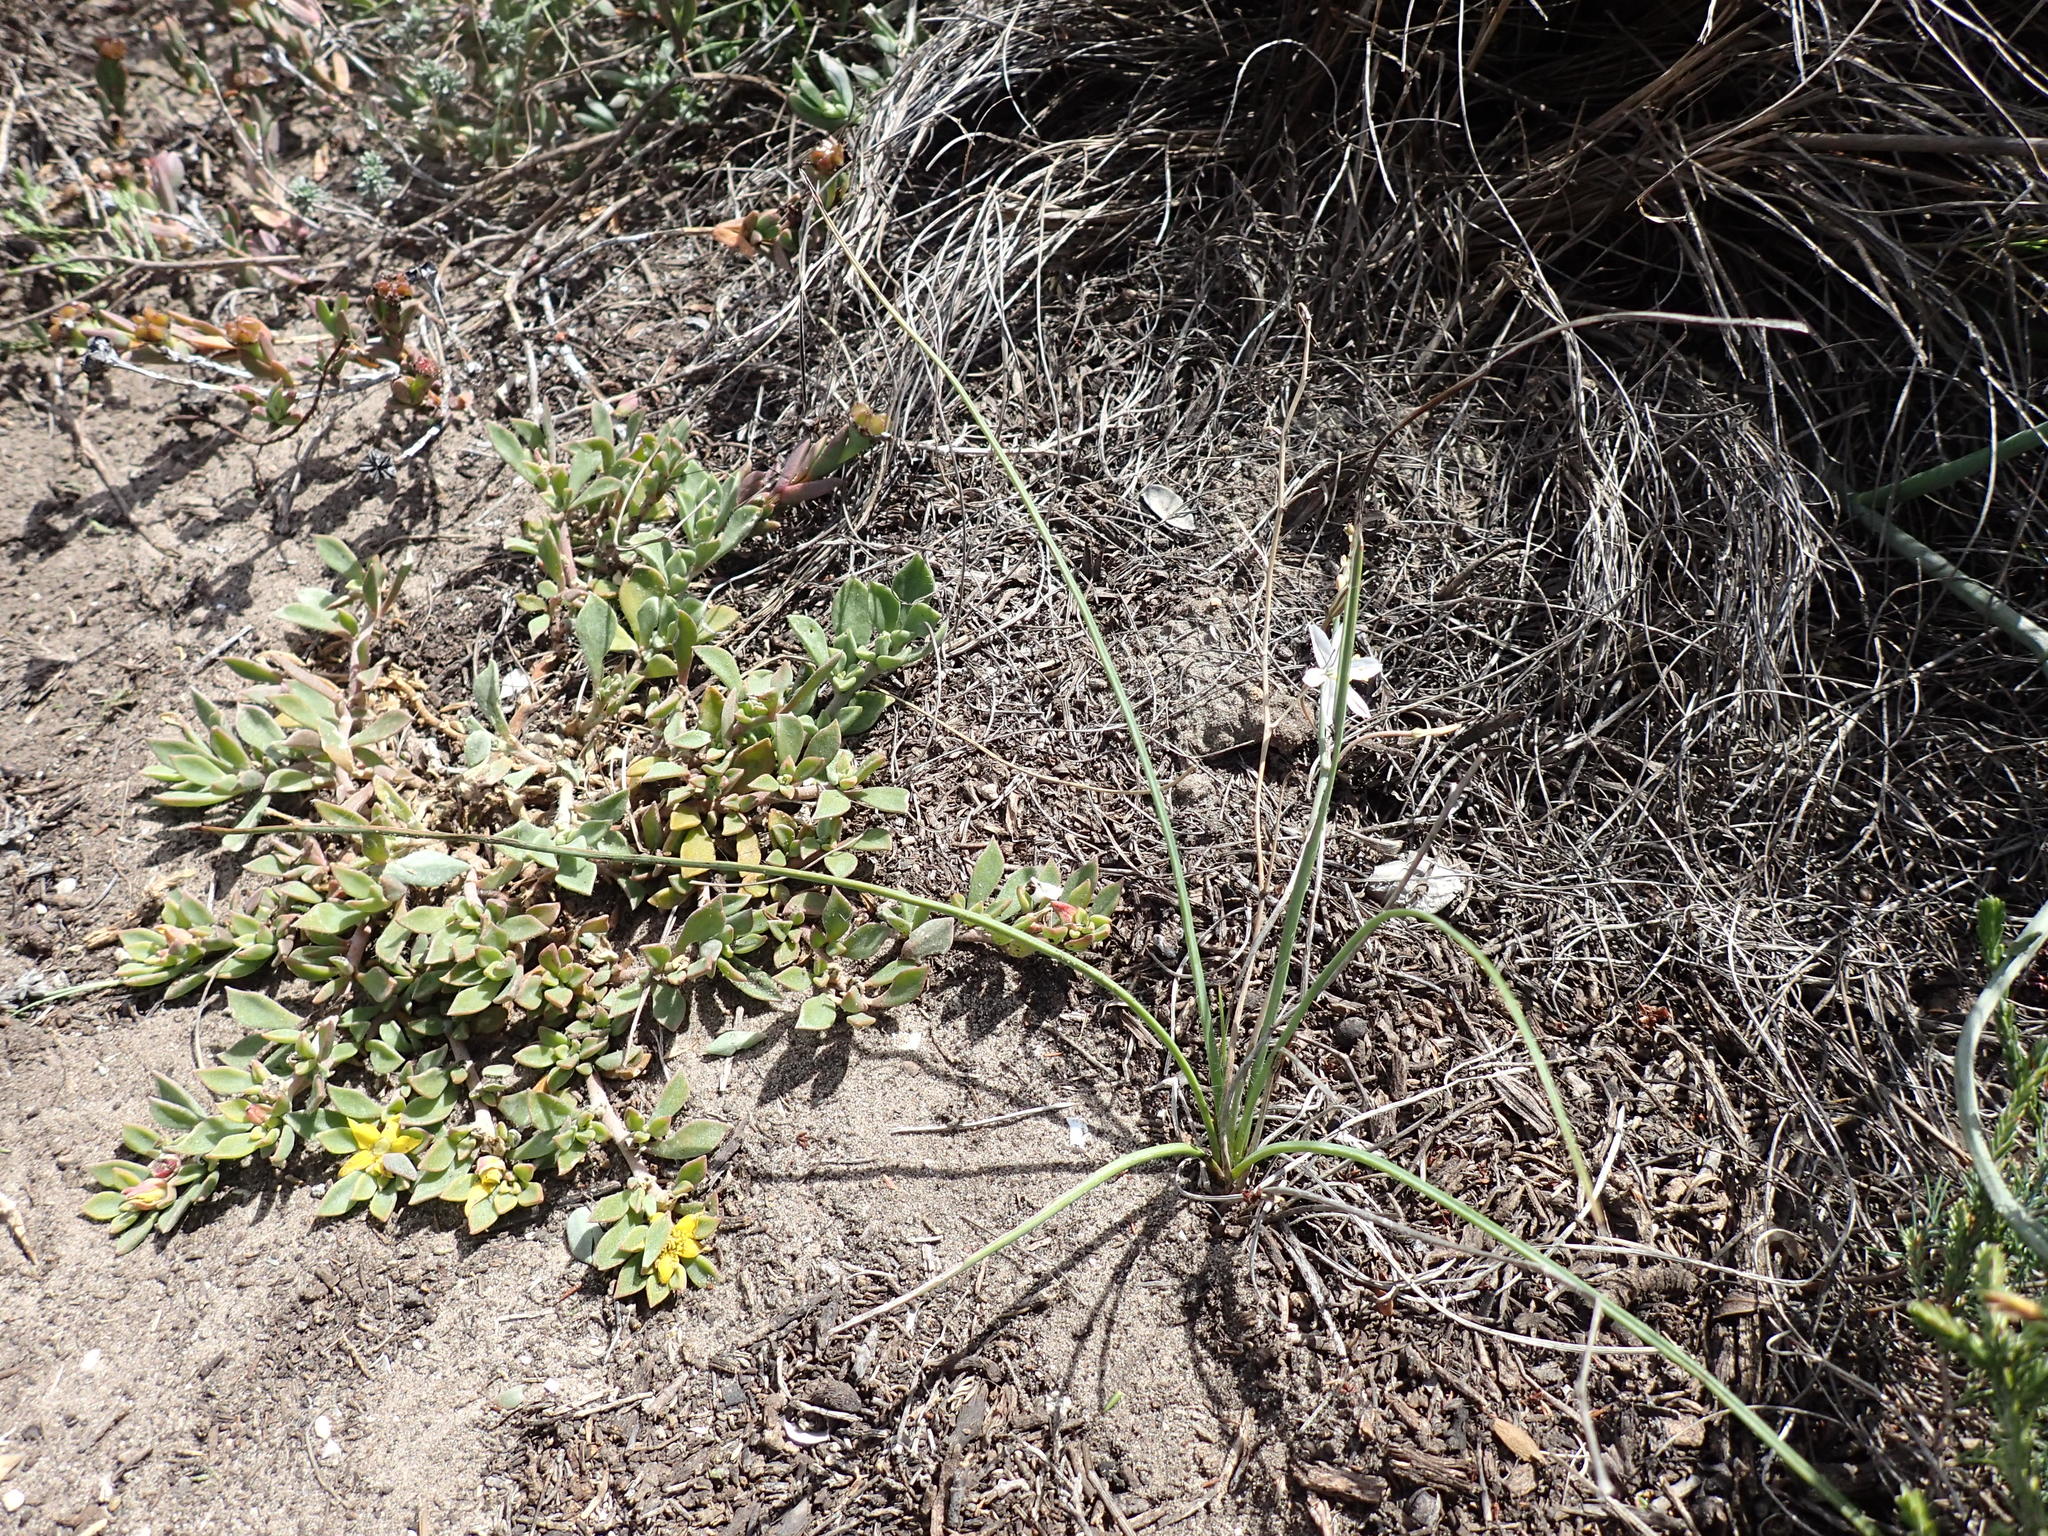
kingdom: Plantae
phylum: Tracheophyta
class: Liliopsida
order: Asparagales
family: Asphodelaceae
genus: Trachyandra
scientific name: Trachyandra saltii
